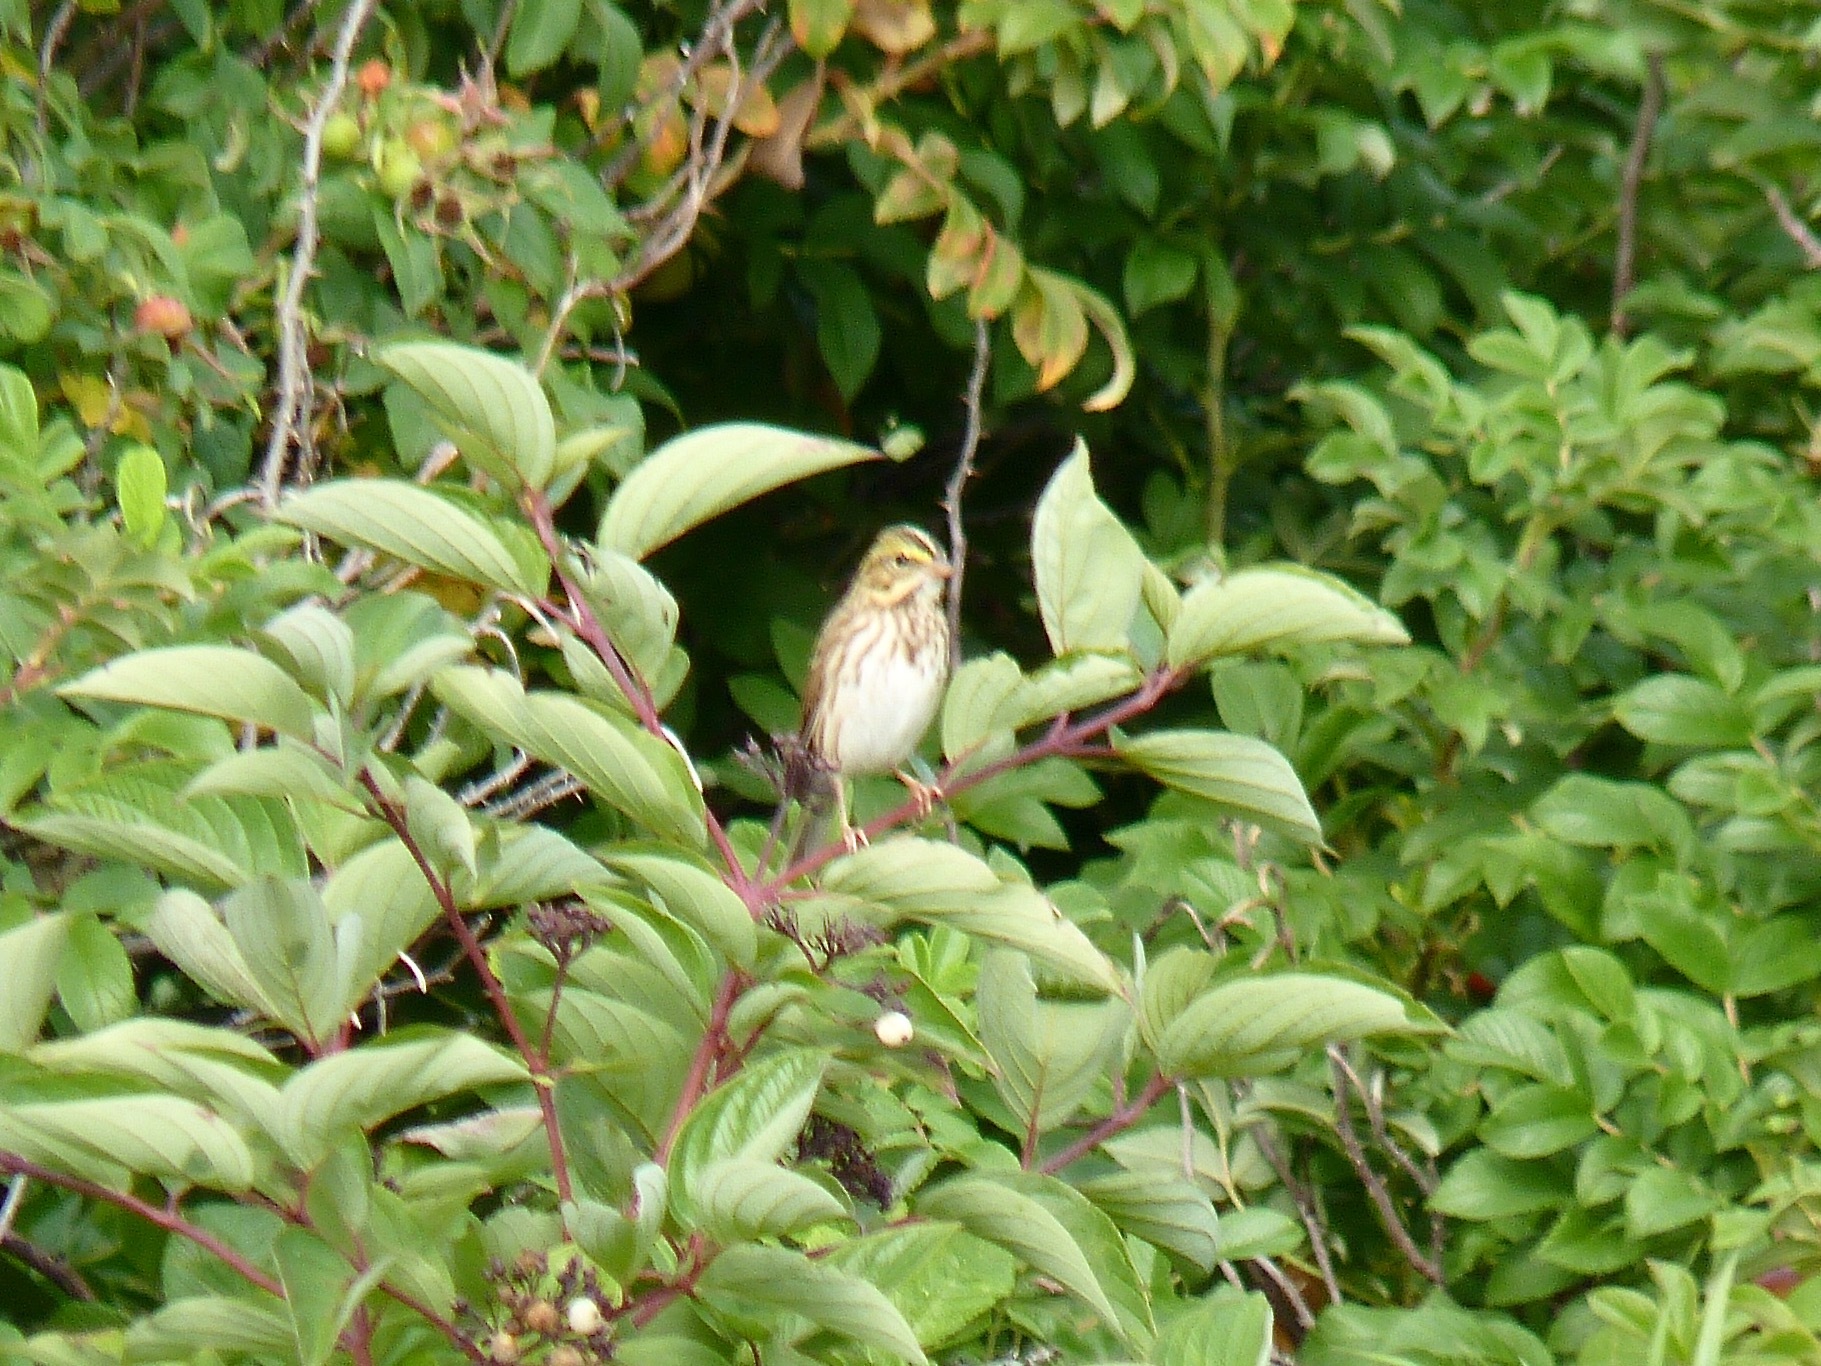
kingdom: Animalia
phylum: Chordata
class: Aves
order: Passeriformes
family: Passerellidae
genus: Passerculus
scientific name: Passerculus sandwichensis
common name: Savannah sparrow
